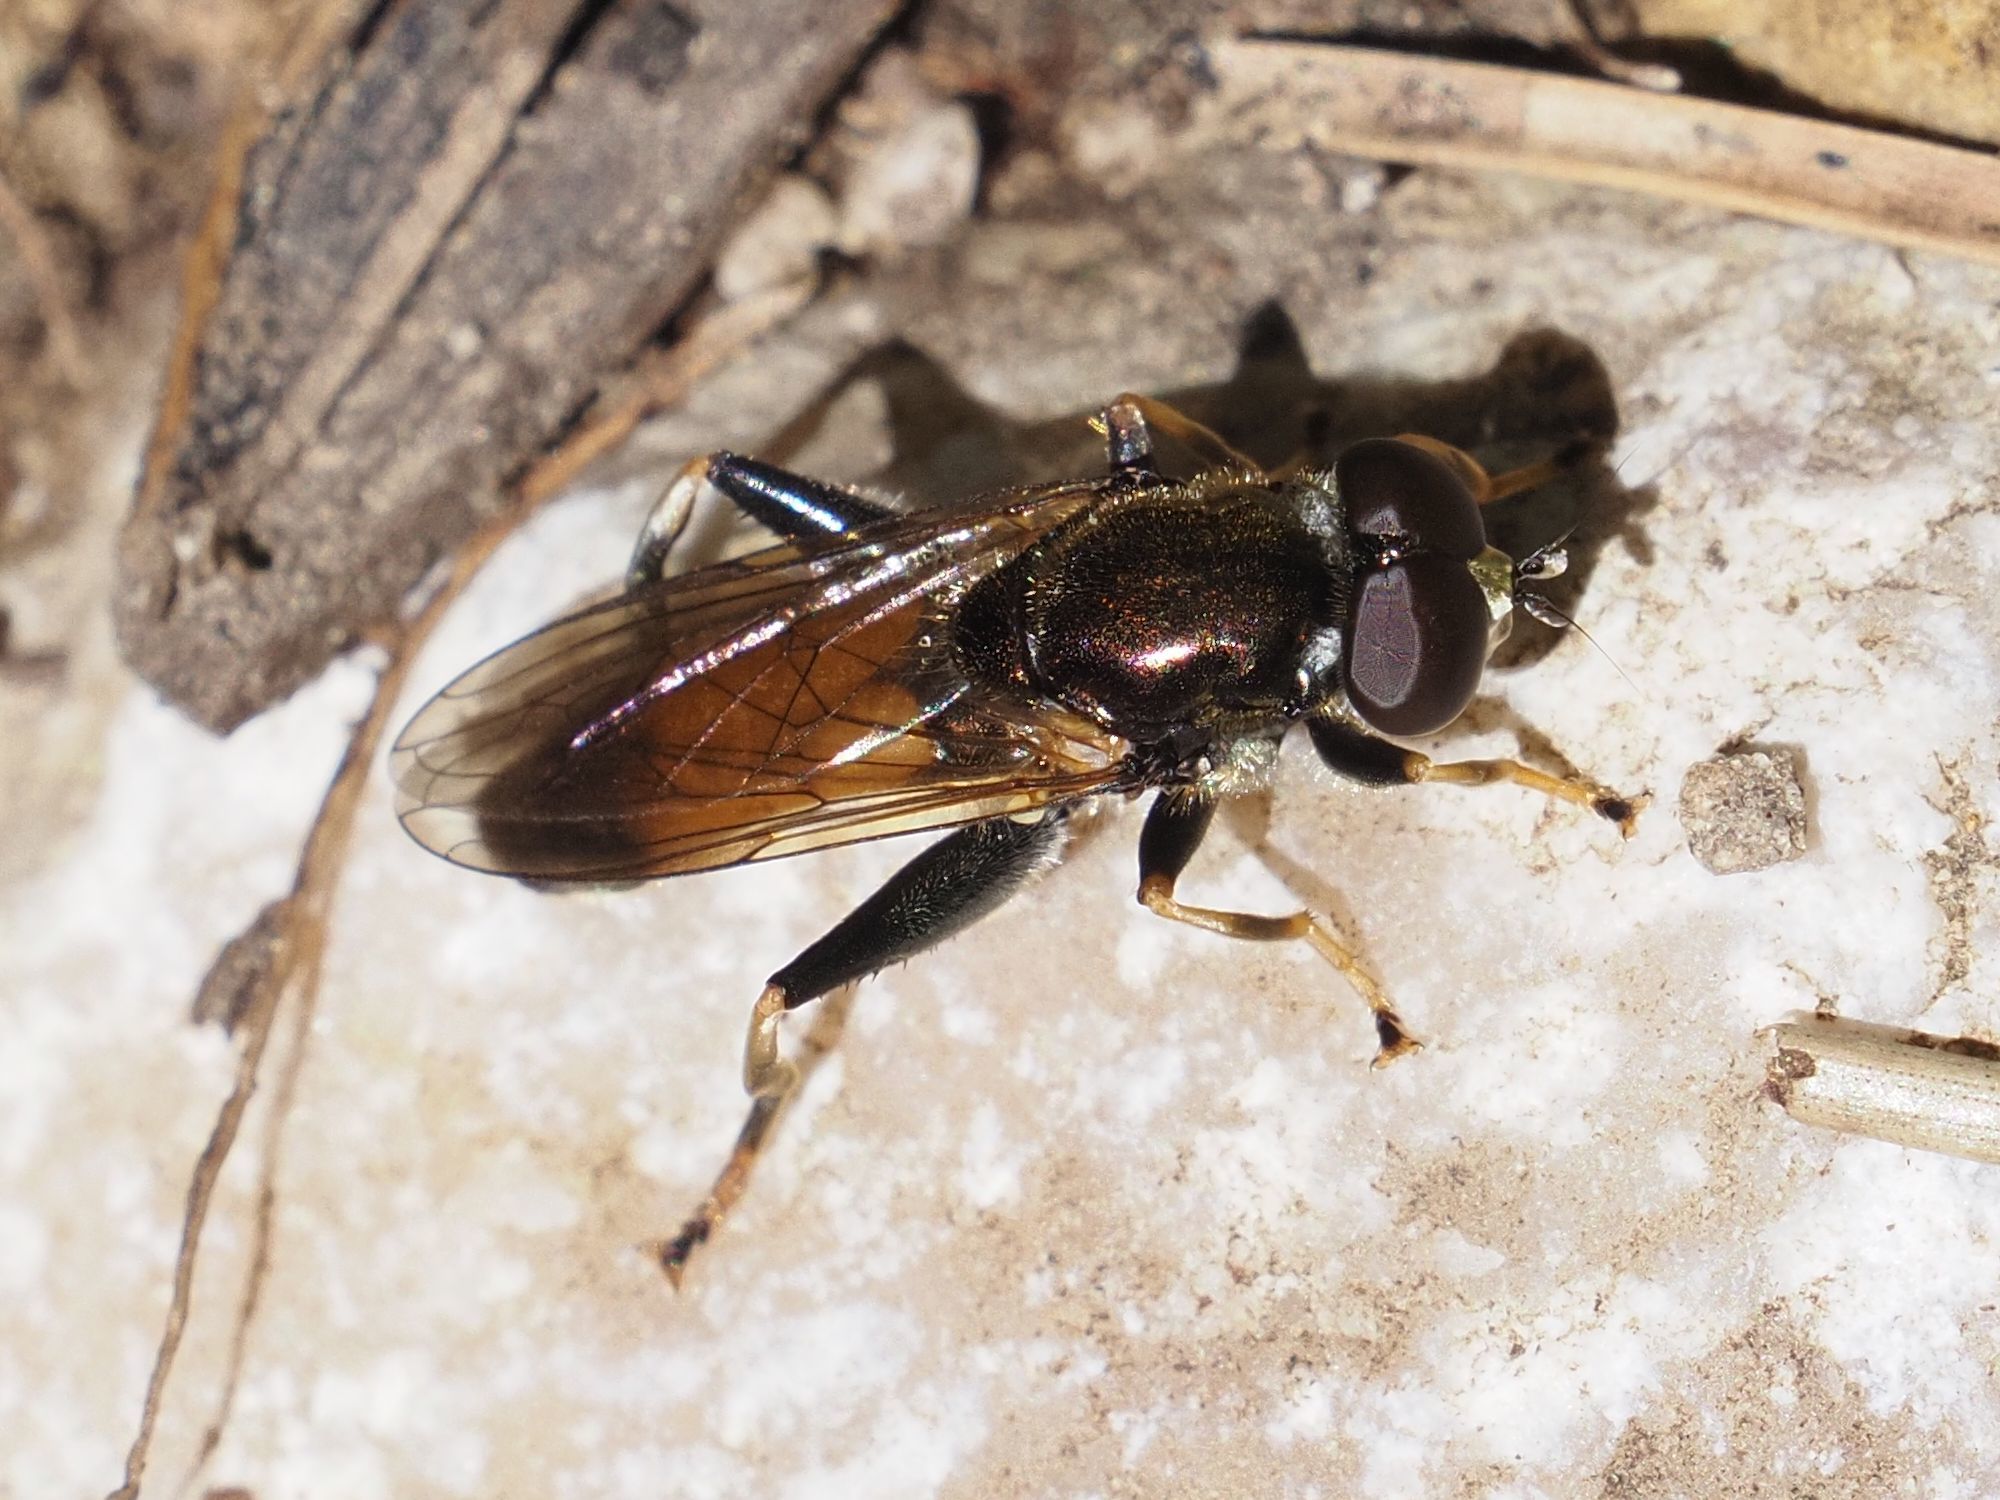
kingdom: Animalia
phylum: Arthropoda
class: Insecta
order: Diptera
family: Syrphidae
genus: Xylota
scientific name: Xylota segnis
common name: Brown-toed forest fly
